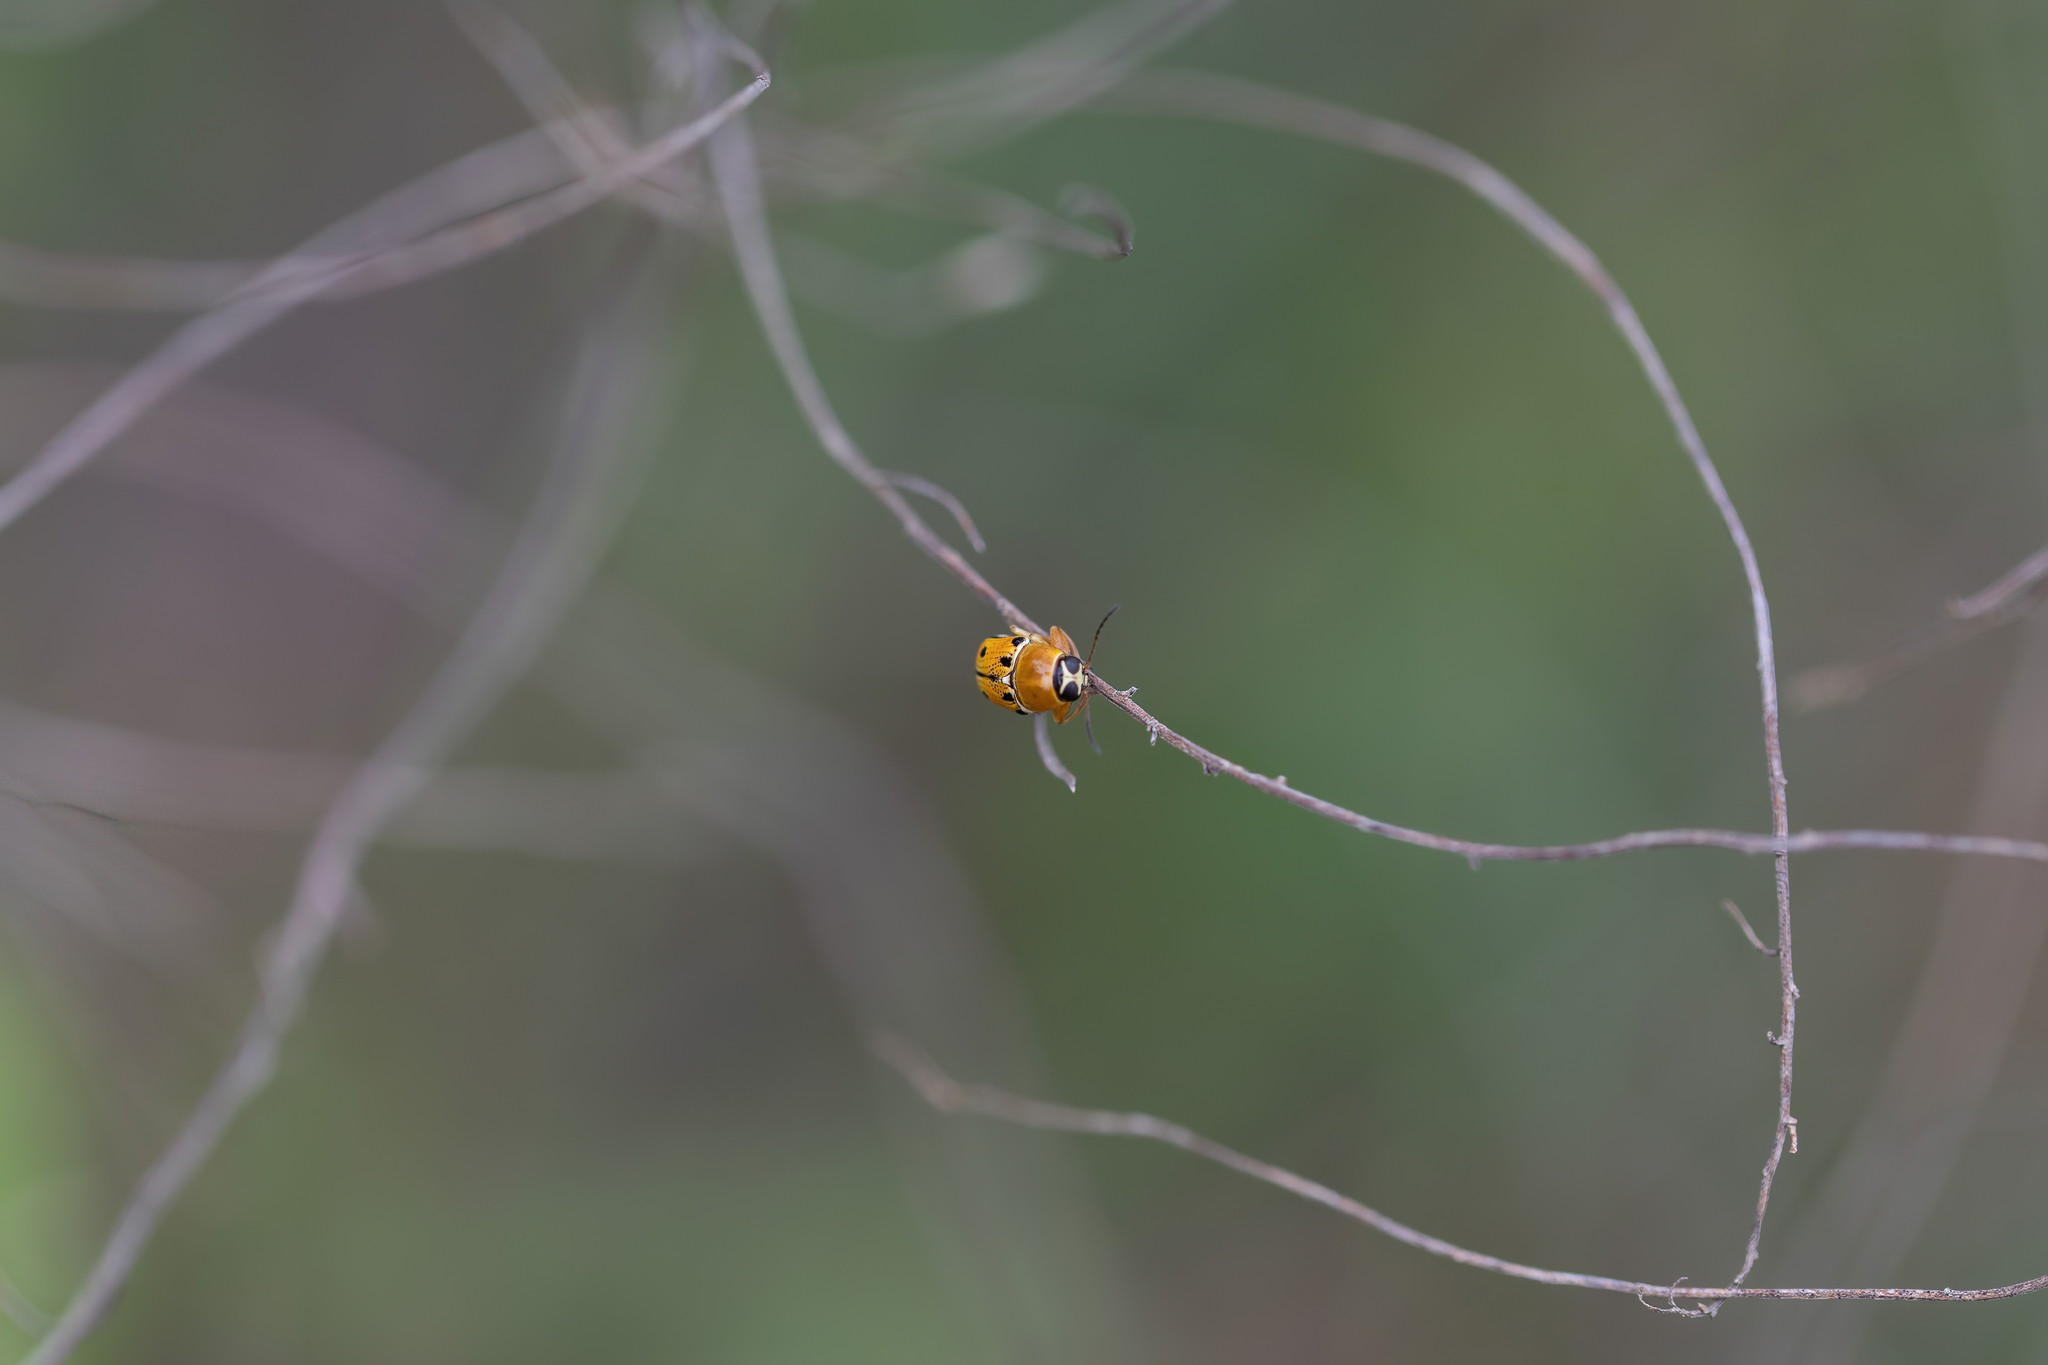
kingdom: Animalia
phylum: Arthropoda
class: Insecta
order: Coleoptera
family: Chrysomelidae
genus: Griburius
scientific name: Griburius larvatus
